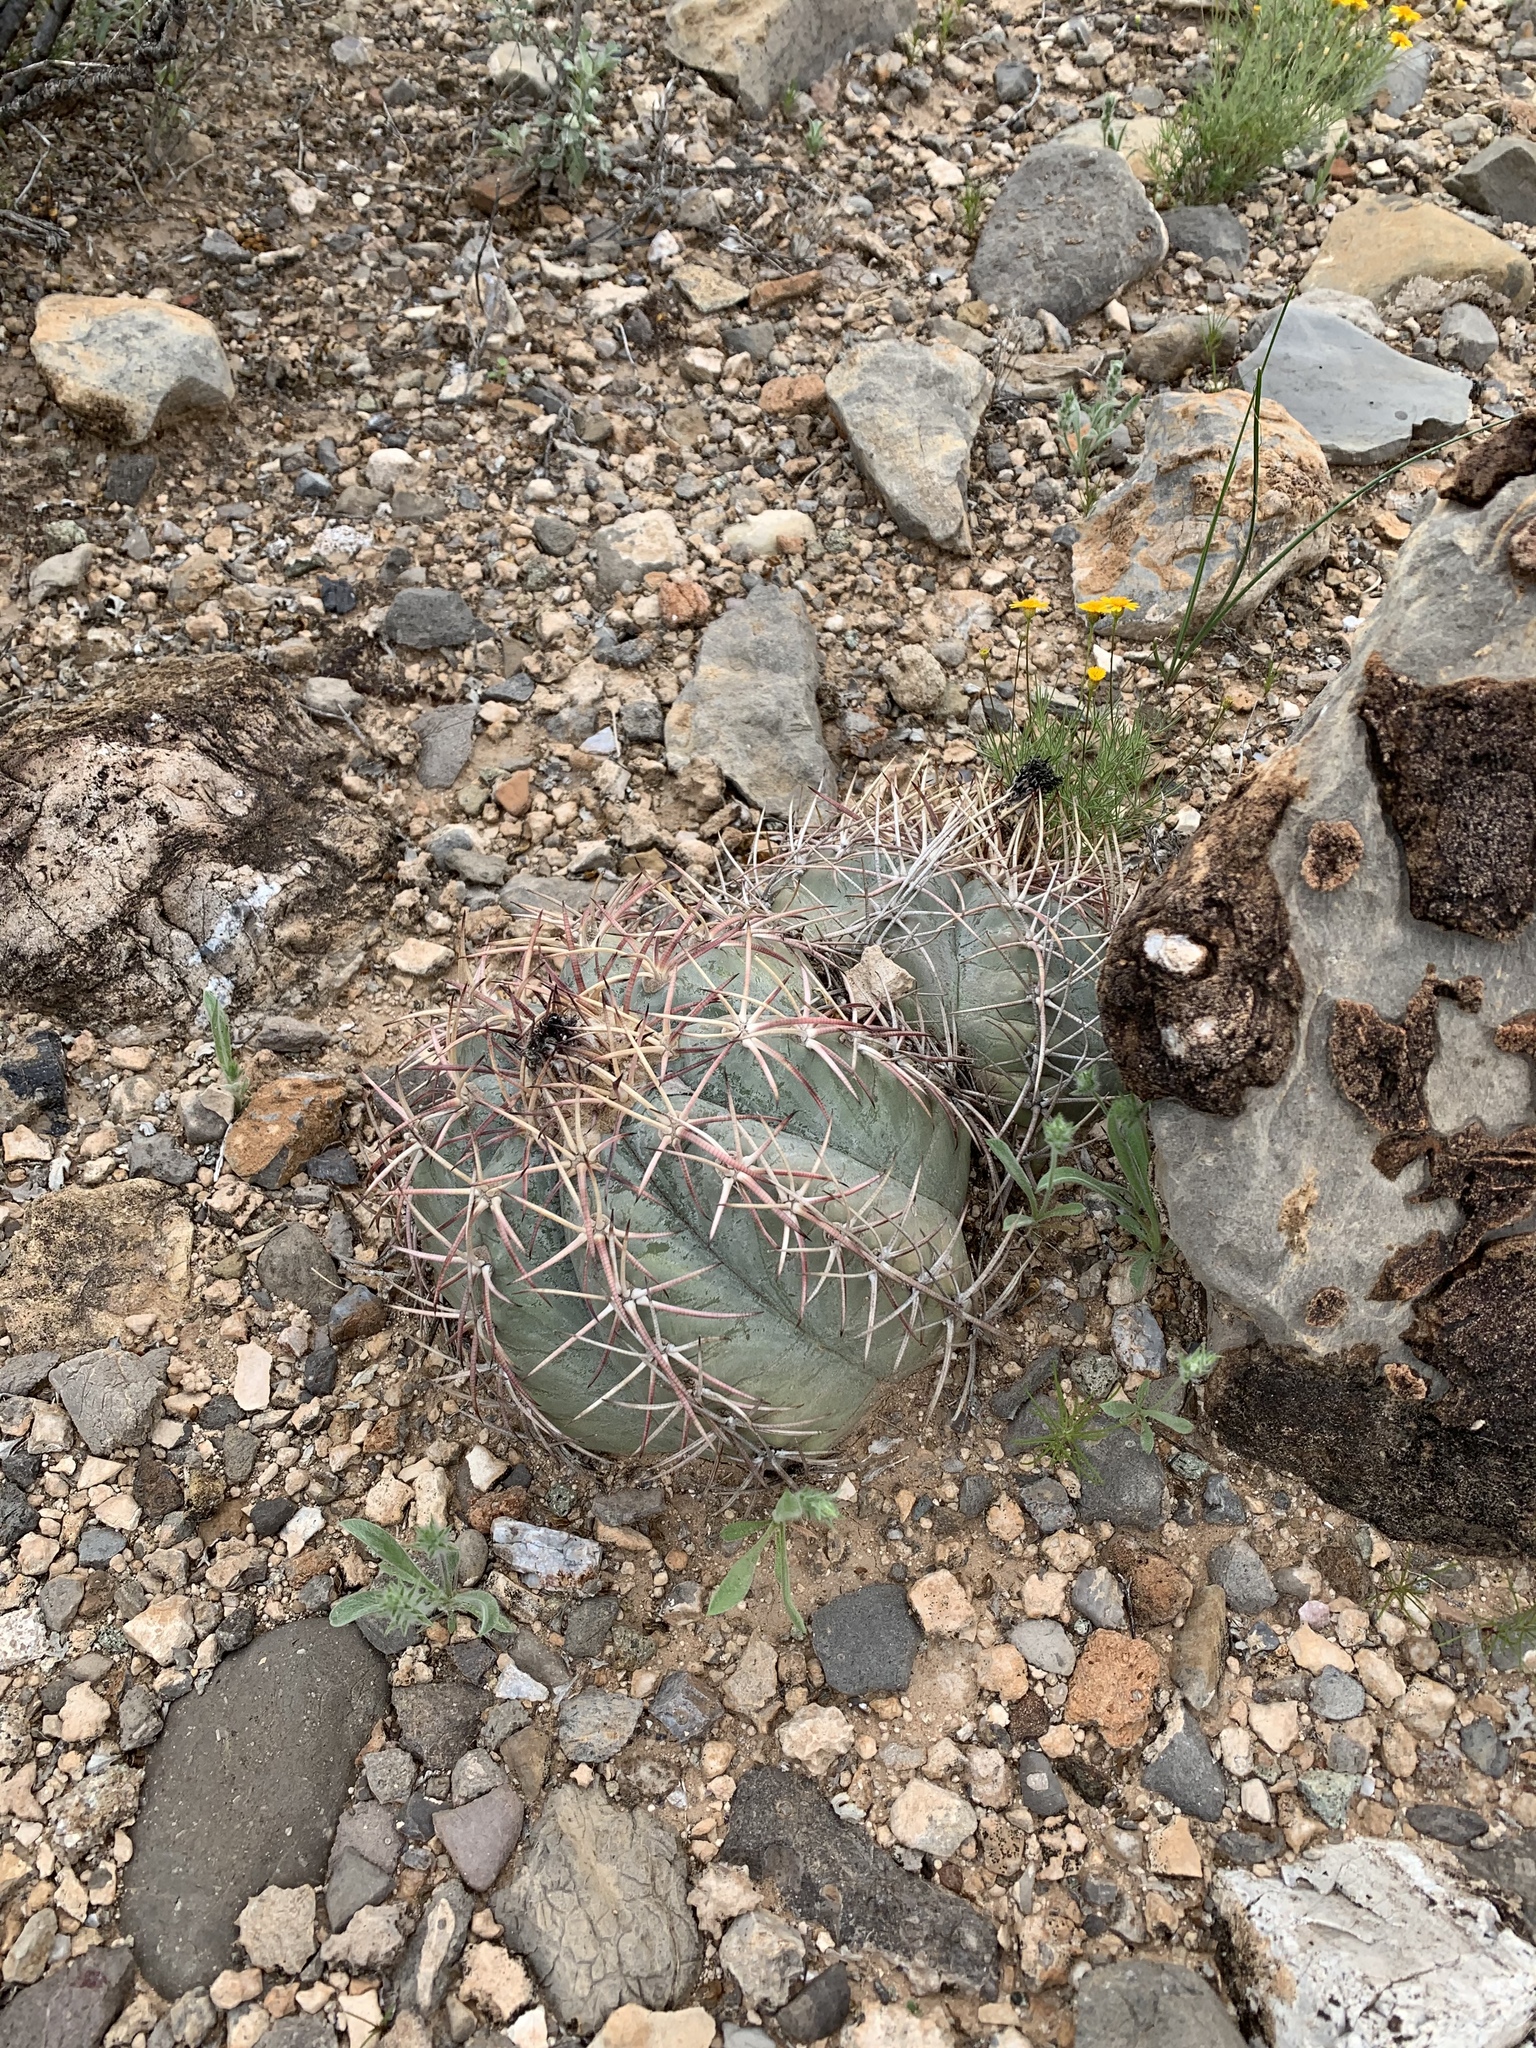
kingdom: Plantae
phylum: Tracheophyta
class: Magnoliopsida
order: Caryophyllales
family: Cactaceae
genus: Echinocactus
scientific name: Echinocactus horizonthalonius
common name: Devilshead
